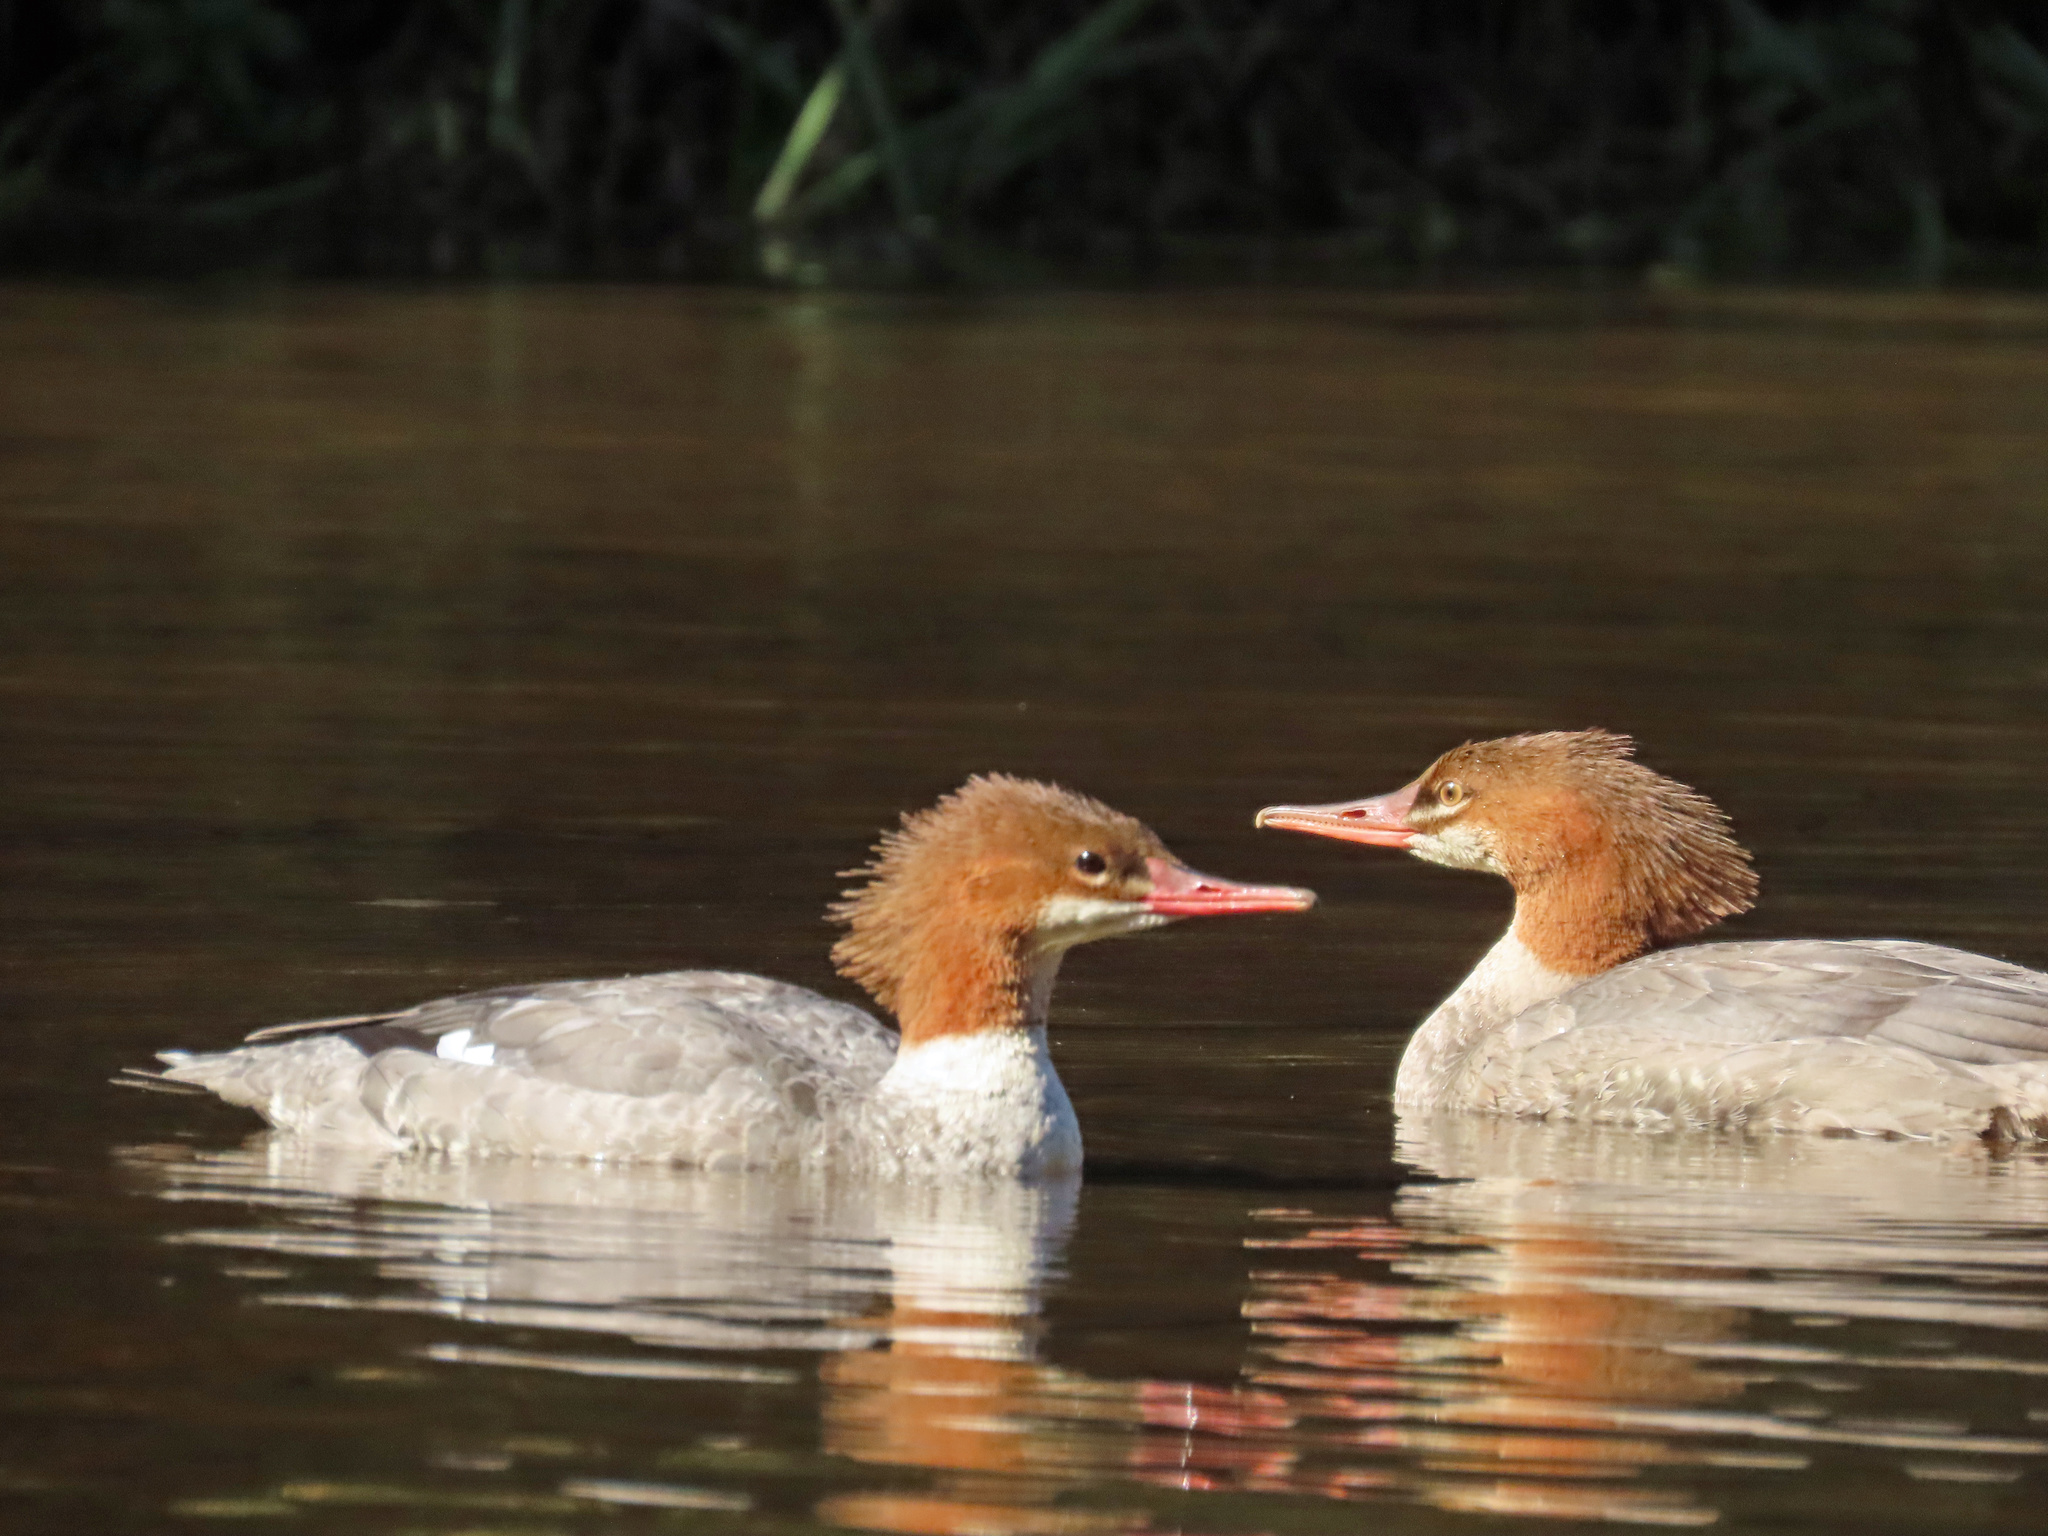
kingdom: Animalia
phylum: Chordata
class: Aves
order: Anseriformes
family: Anatidae
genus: Mergus
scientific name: Mergus merganser
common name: Common merganser
